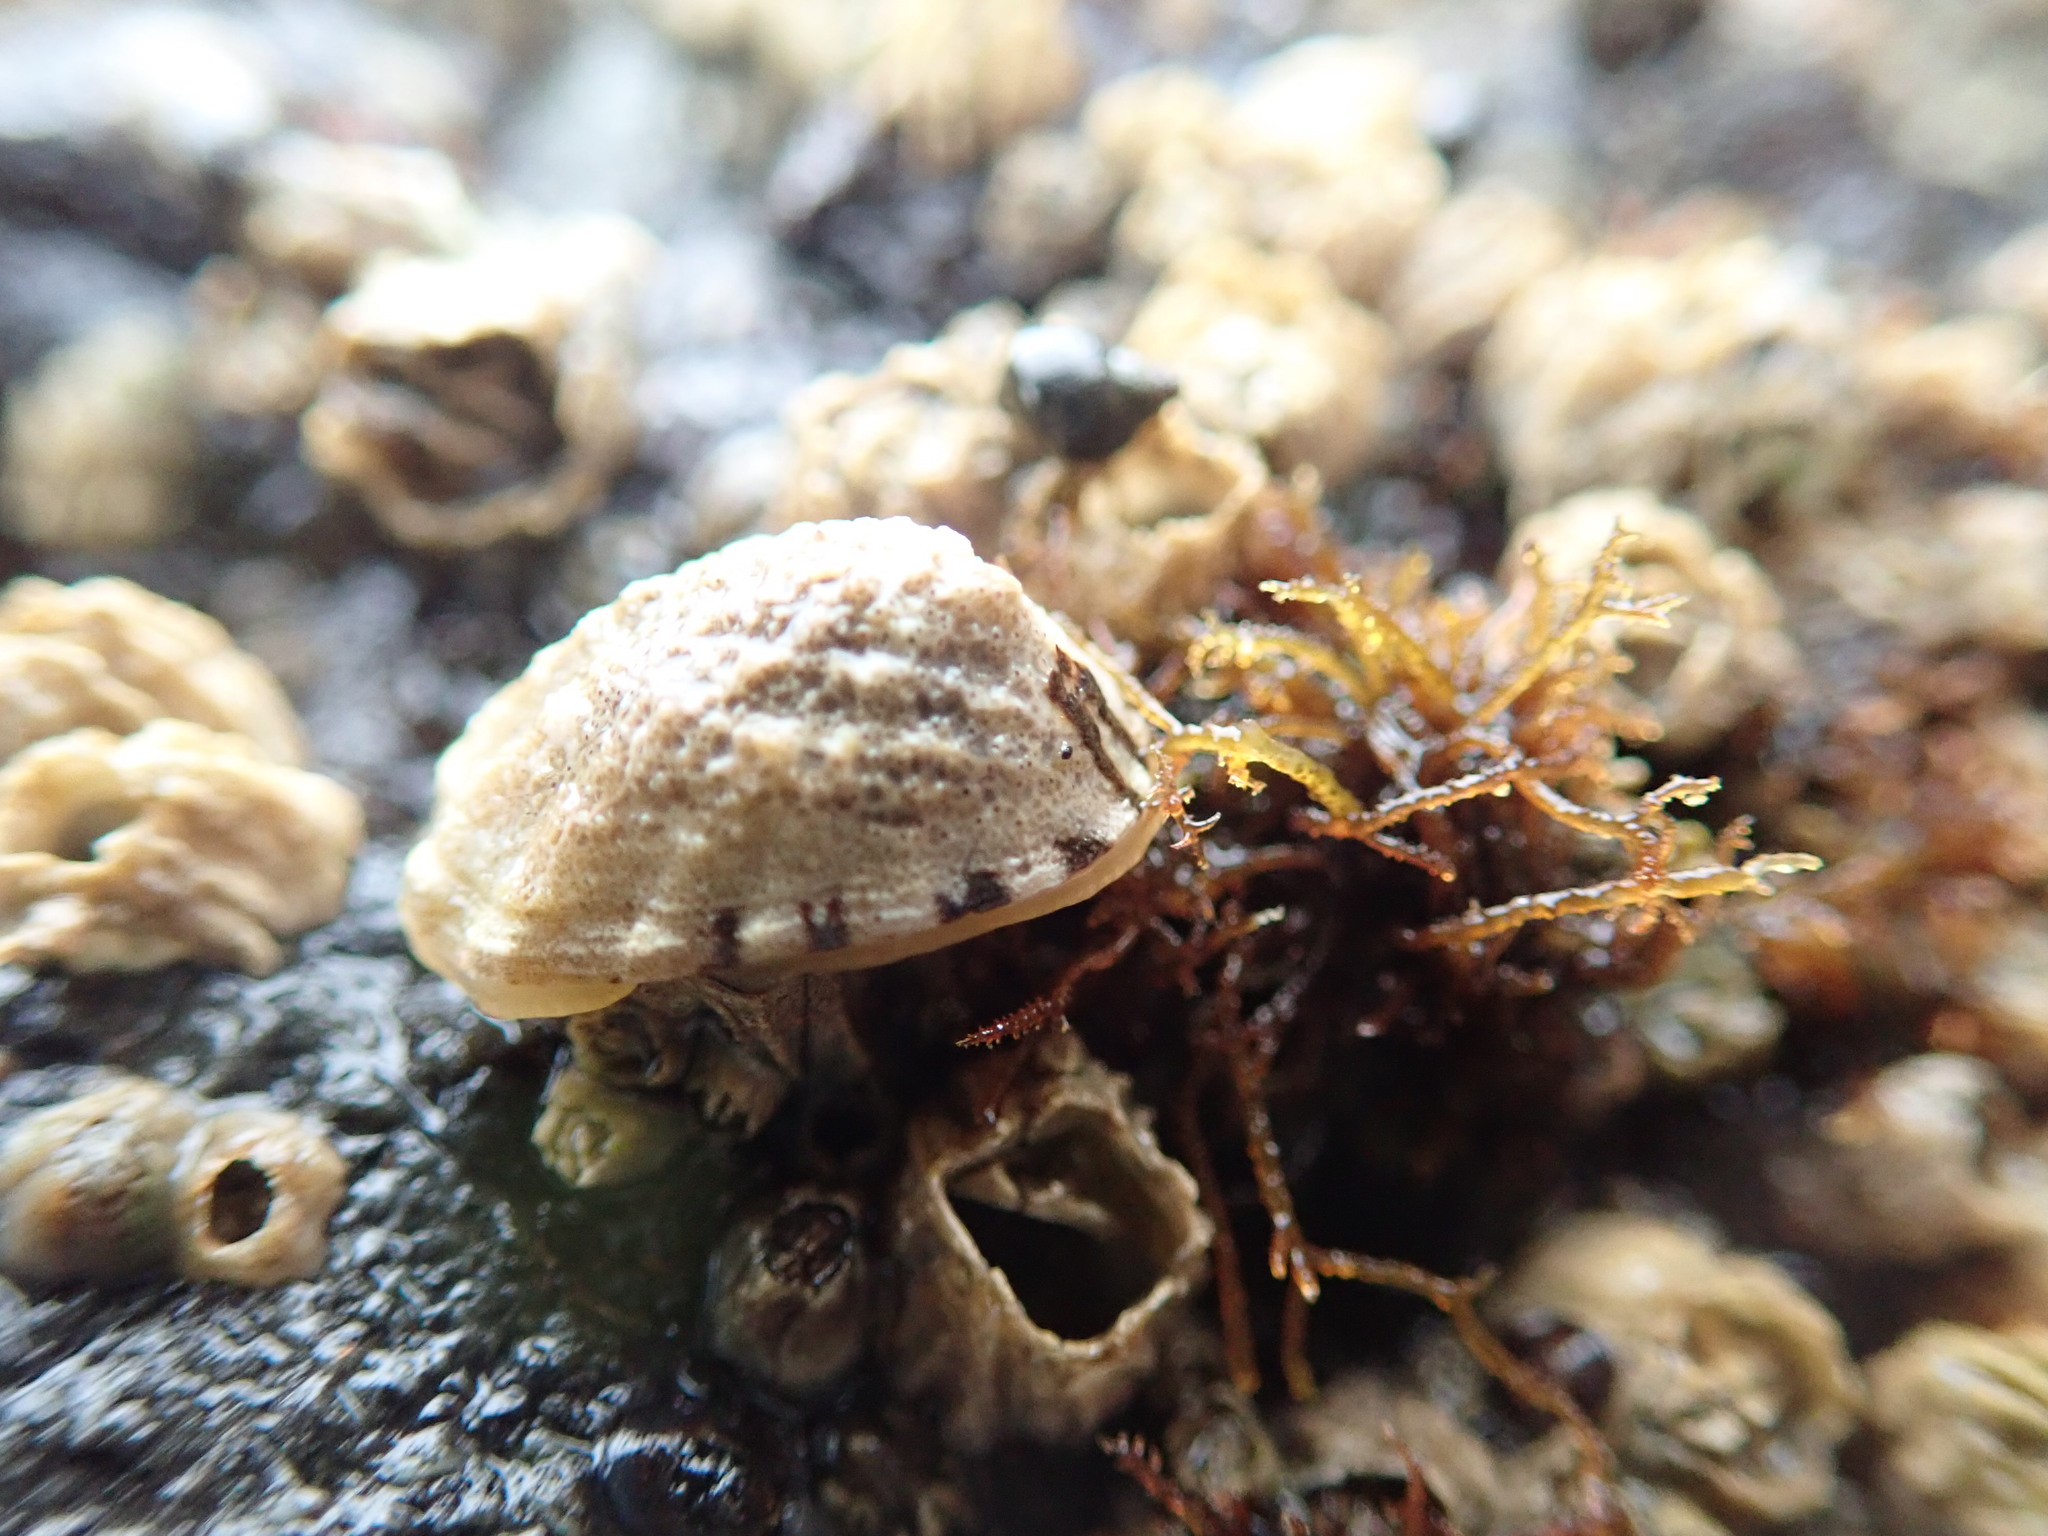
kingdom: Animalia
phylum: Mollusca
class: Gastropoda
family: Lottiidae
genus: Lottia
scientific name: Lottia digitalis
